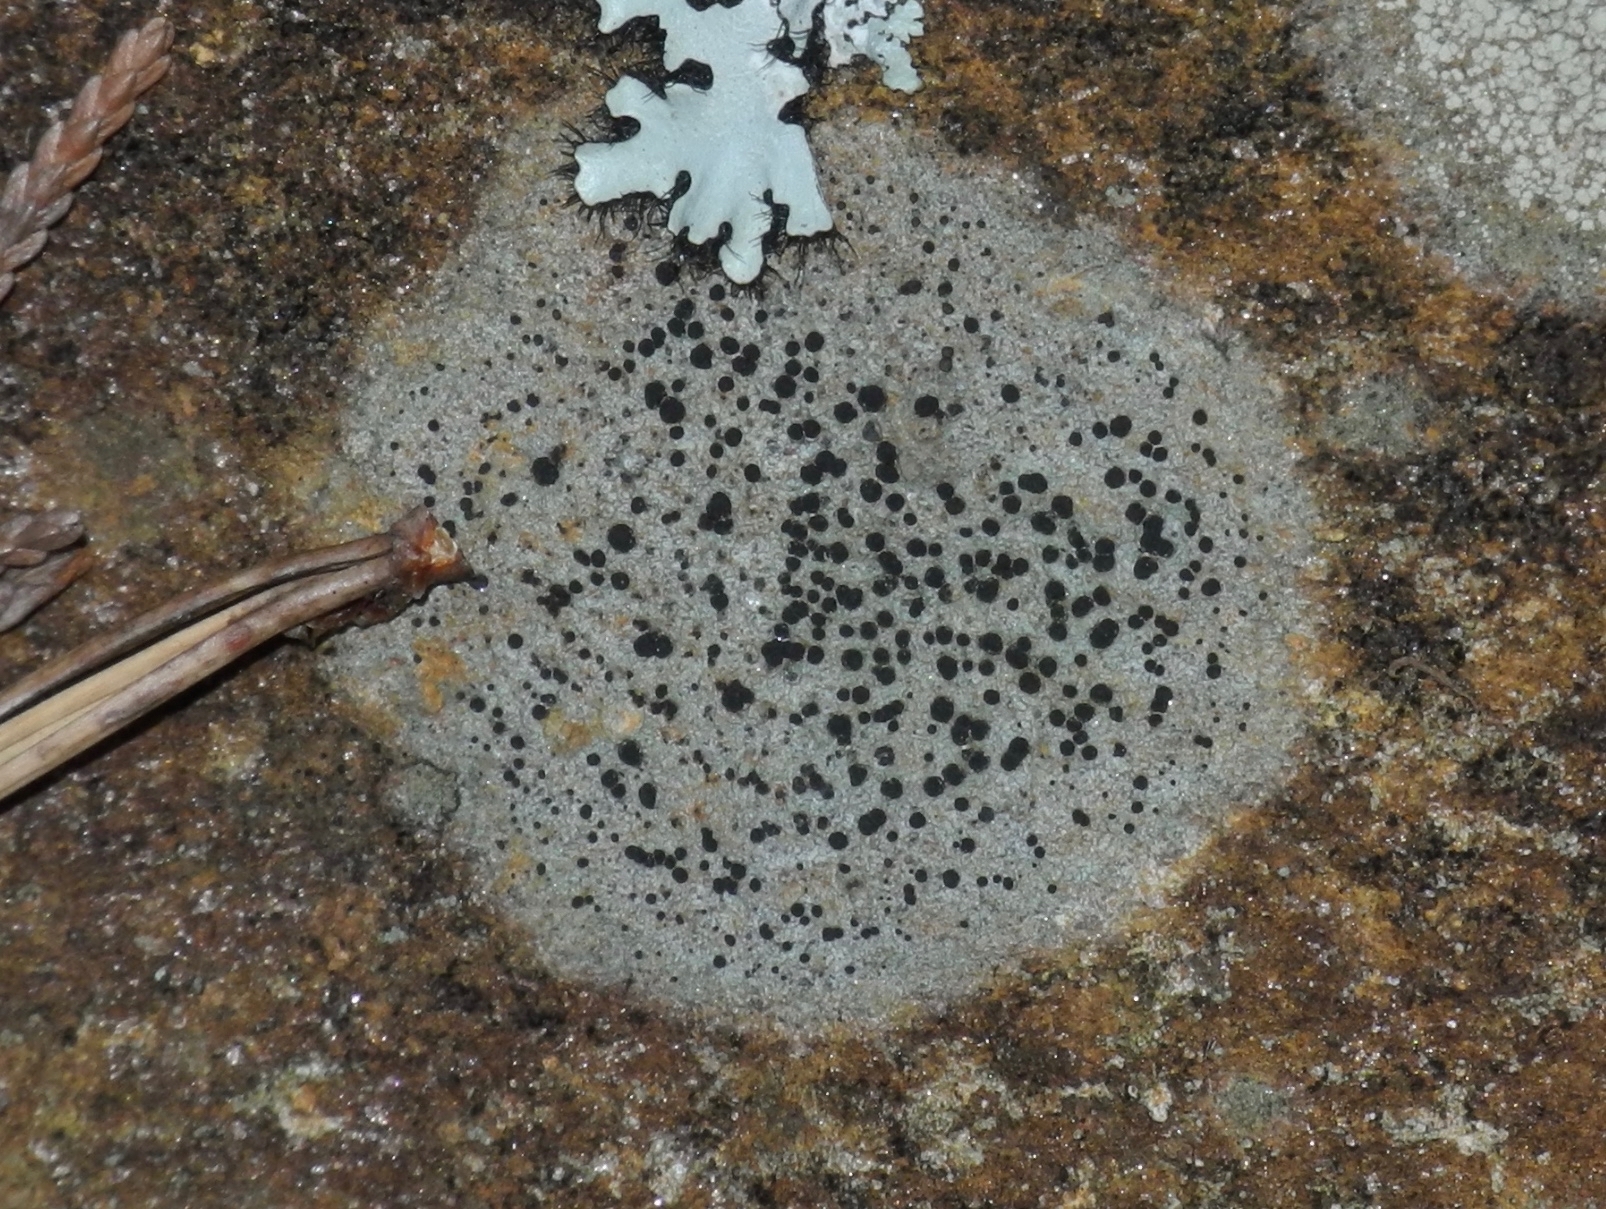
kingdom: Fungi
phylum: Ascomycota
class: Lecanoromycetes
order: Lecideales
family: Lecideaceae
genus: Porpidia
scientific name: Porpidia crustulata
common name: Concentric boulder lichen
